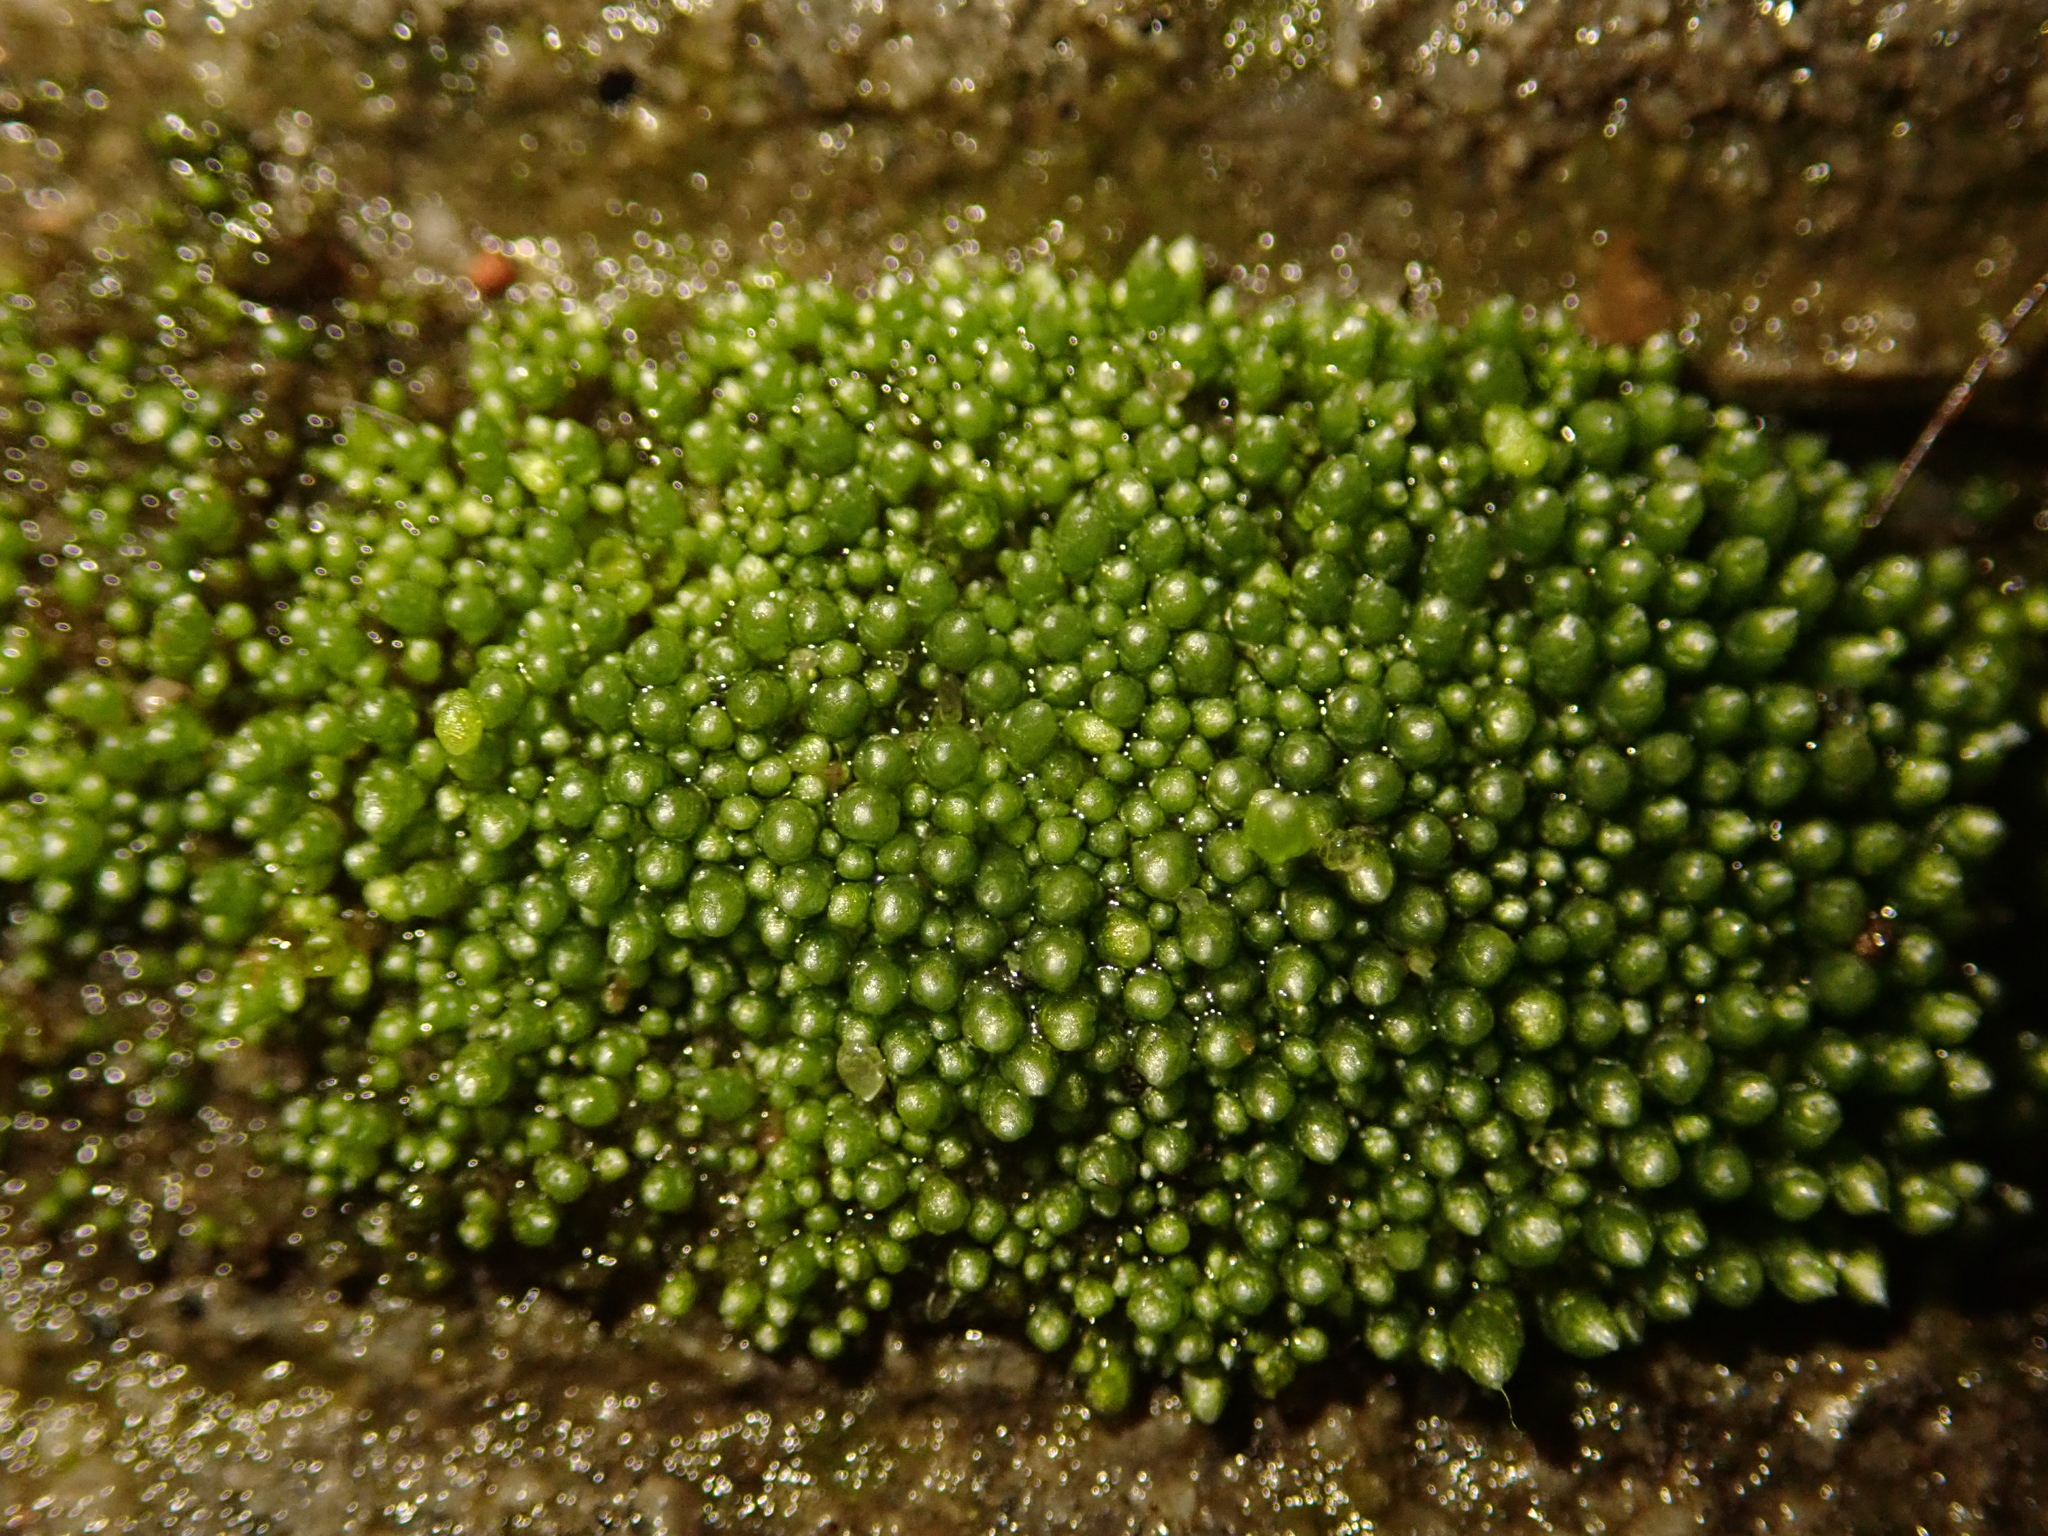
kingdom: Plantae
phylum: Bryophyta
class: Bryopsida
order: Bryales
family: Bryaceae
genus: Bryum
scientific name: Bryum argenteum
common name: Silver-moss
